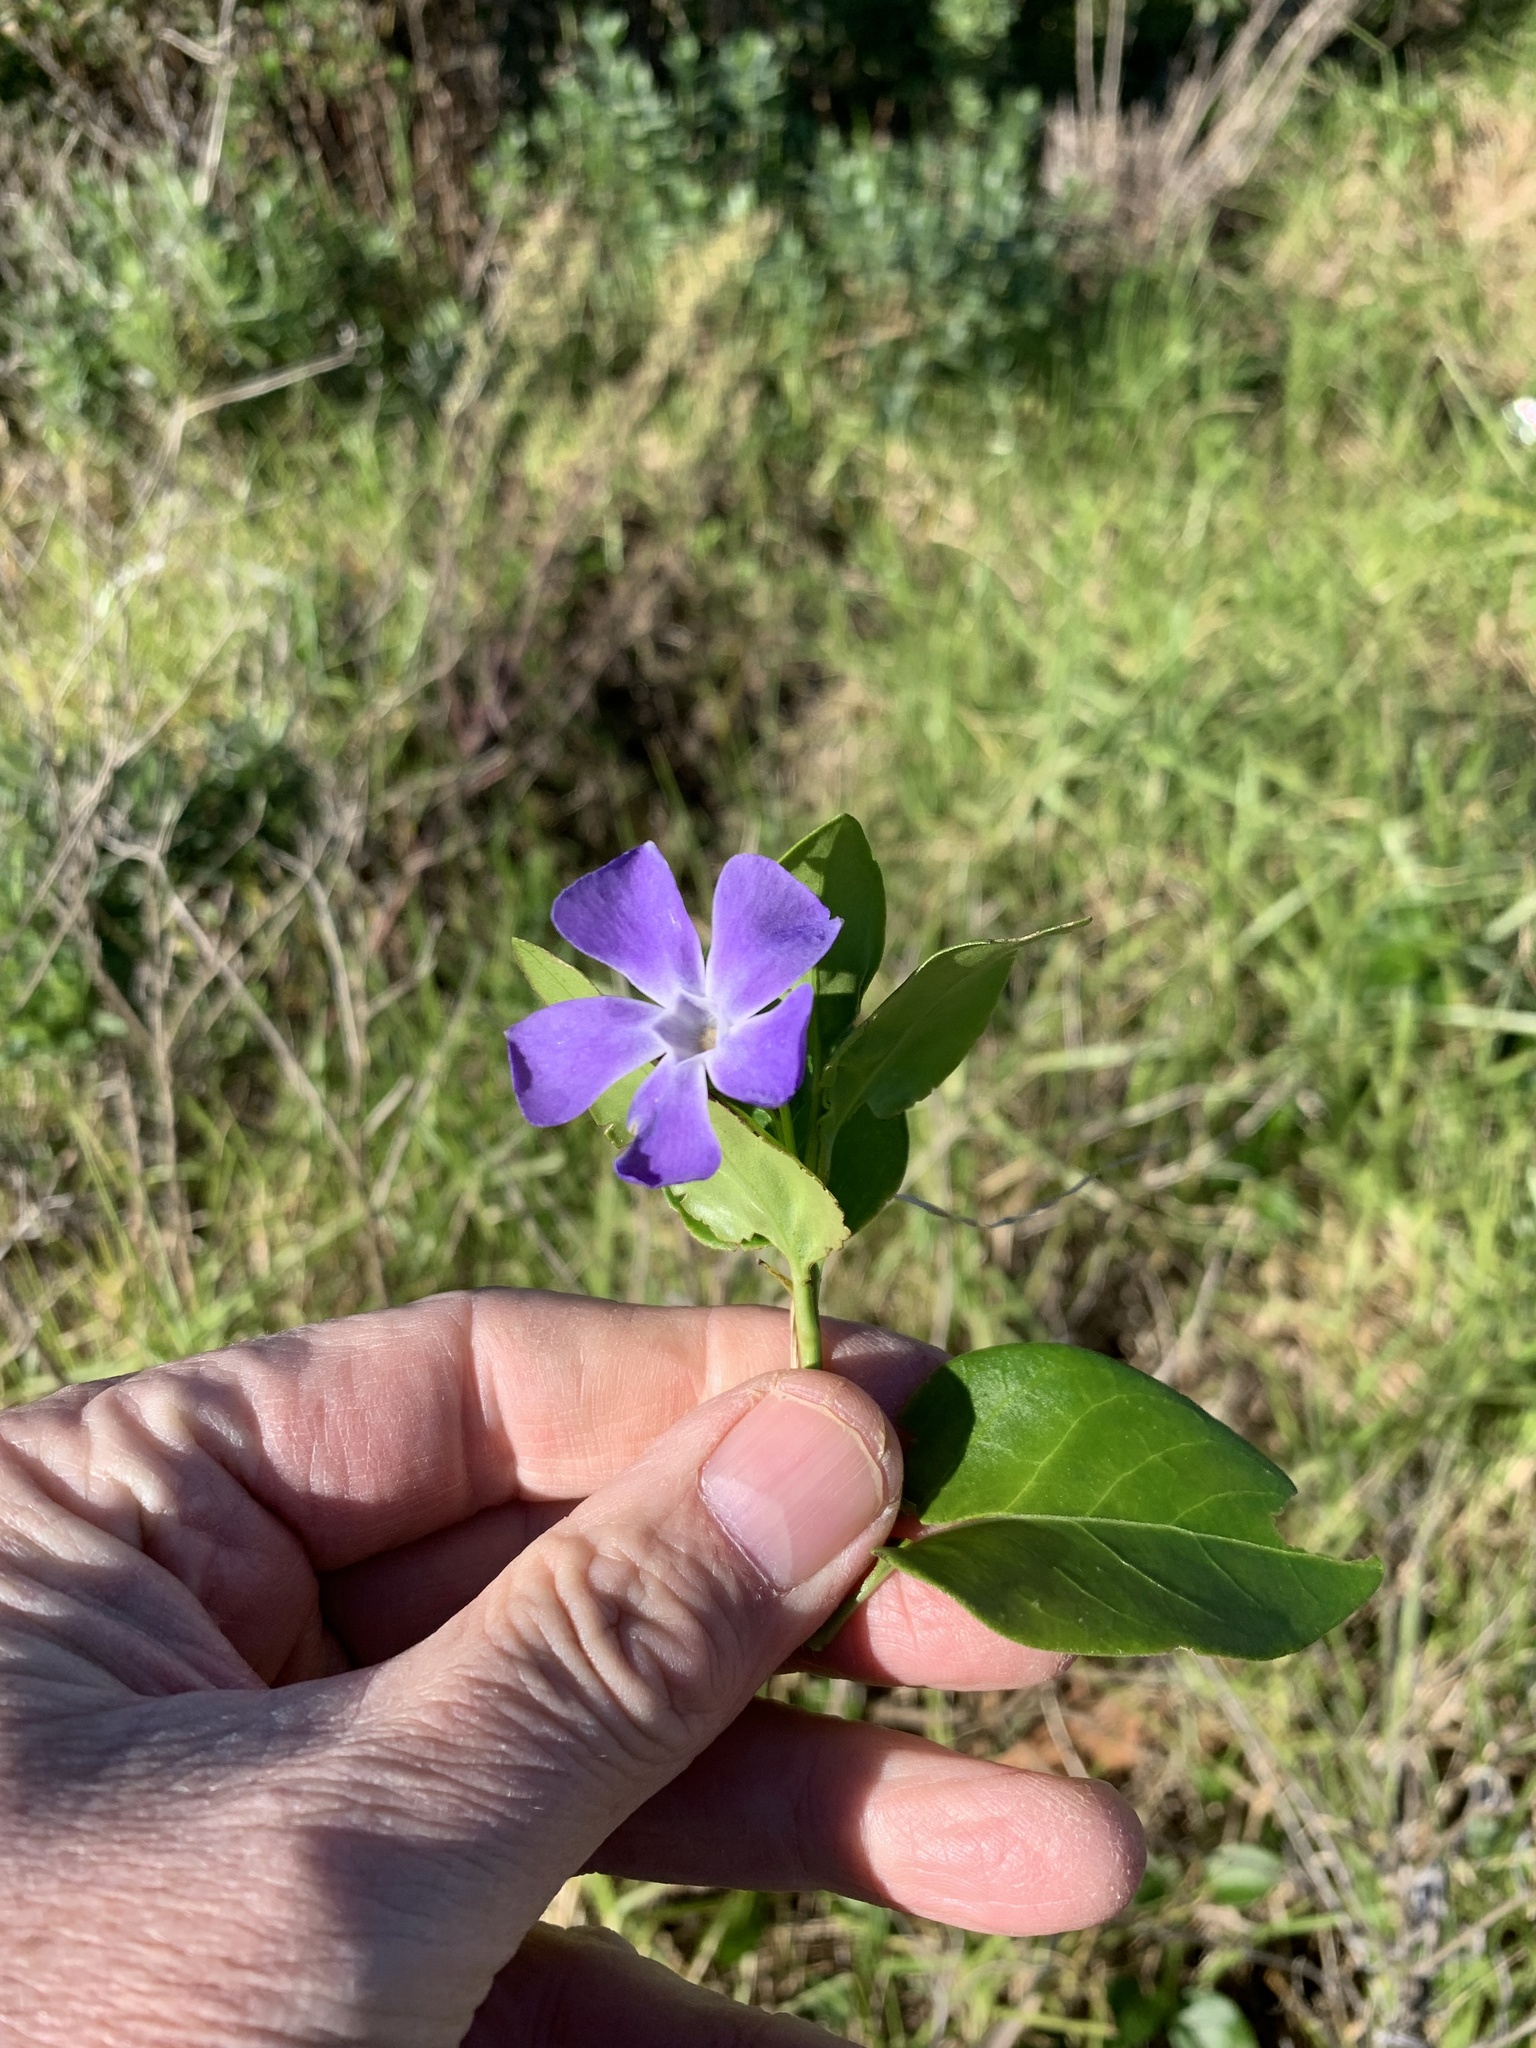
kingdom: Plantae
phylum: Tracheophyta
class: Magnoliopsida
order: Gentianales
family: Apocynaceae
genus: Vinca
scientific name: Vinca major
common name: Greater periwinkle
